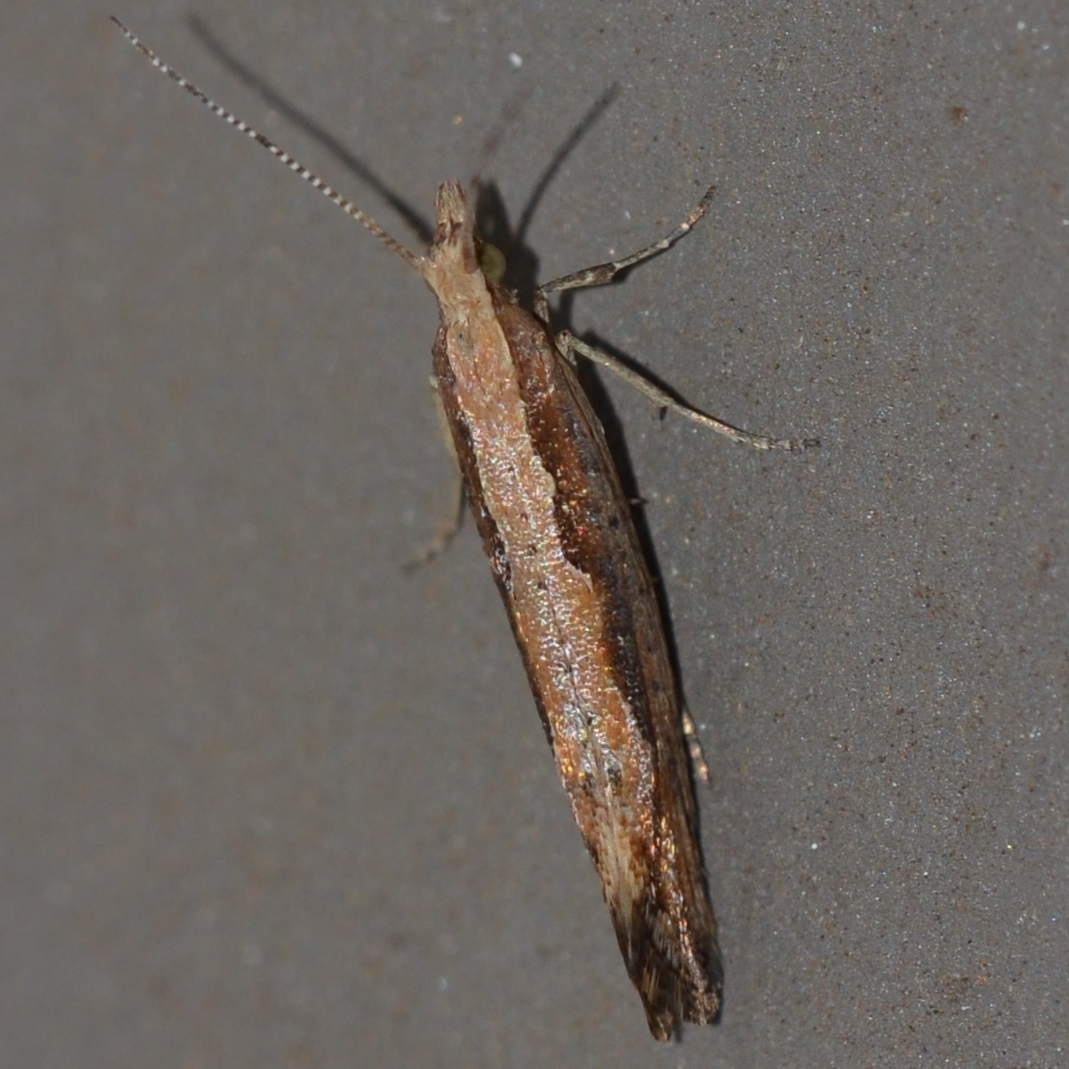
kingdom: Animalia
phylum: Arthropoda
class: Insecta
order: Lepidoptera
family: Plutellidae
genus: Plutella
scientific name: Plutella xylostella
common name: Diamond-back moth
